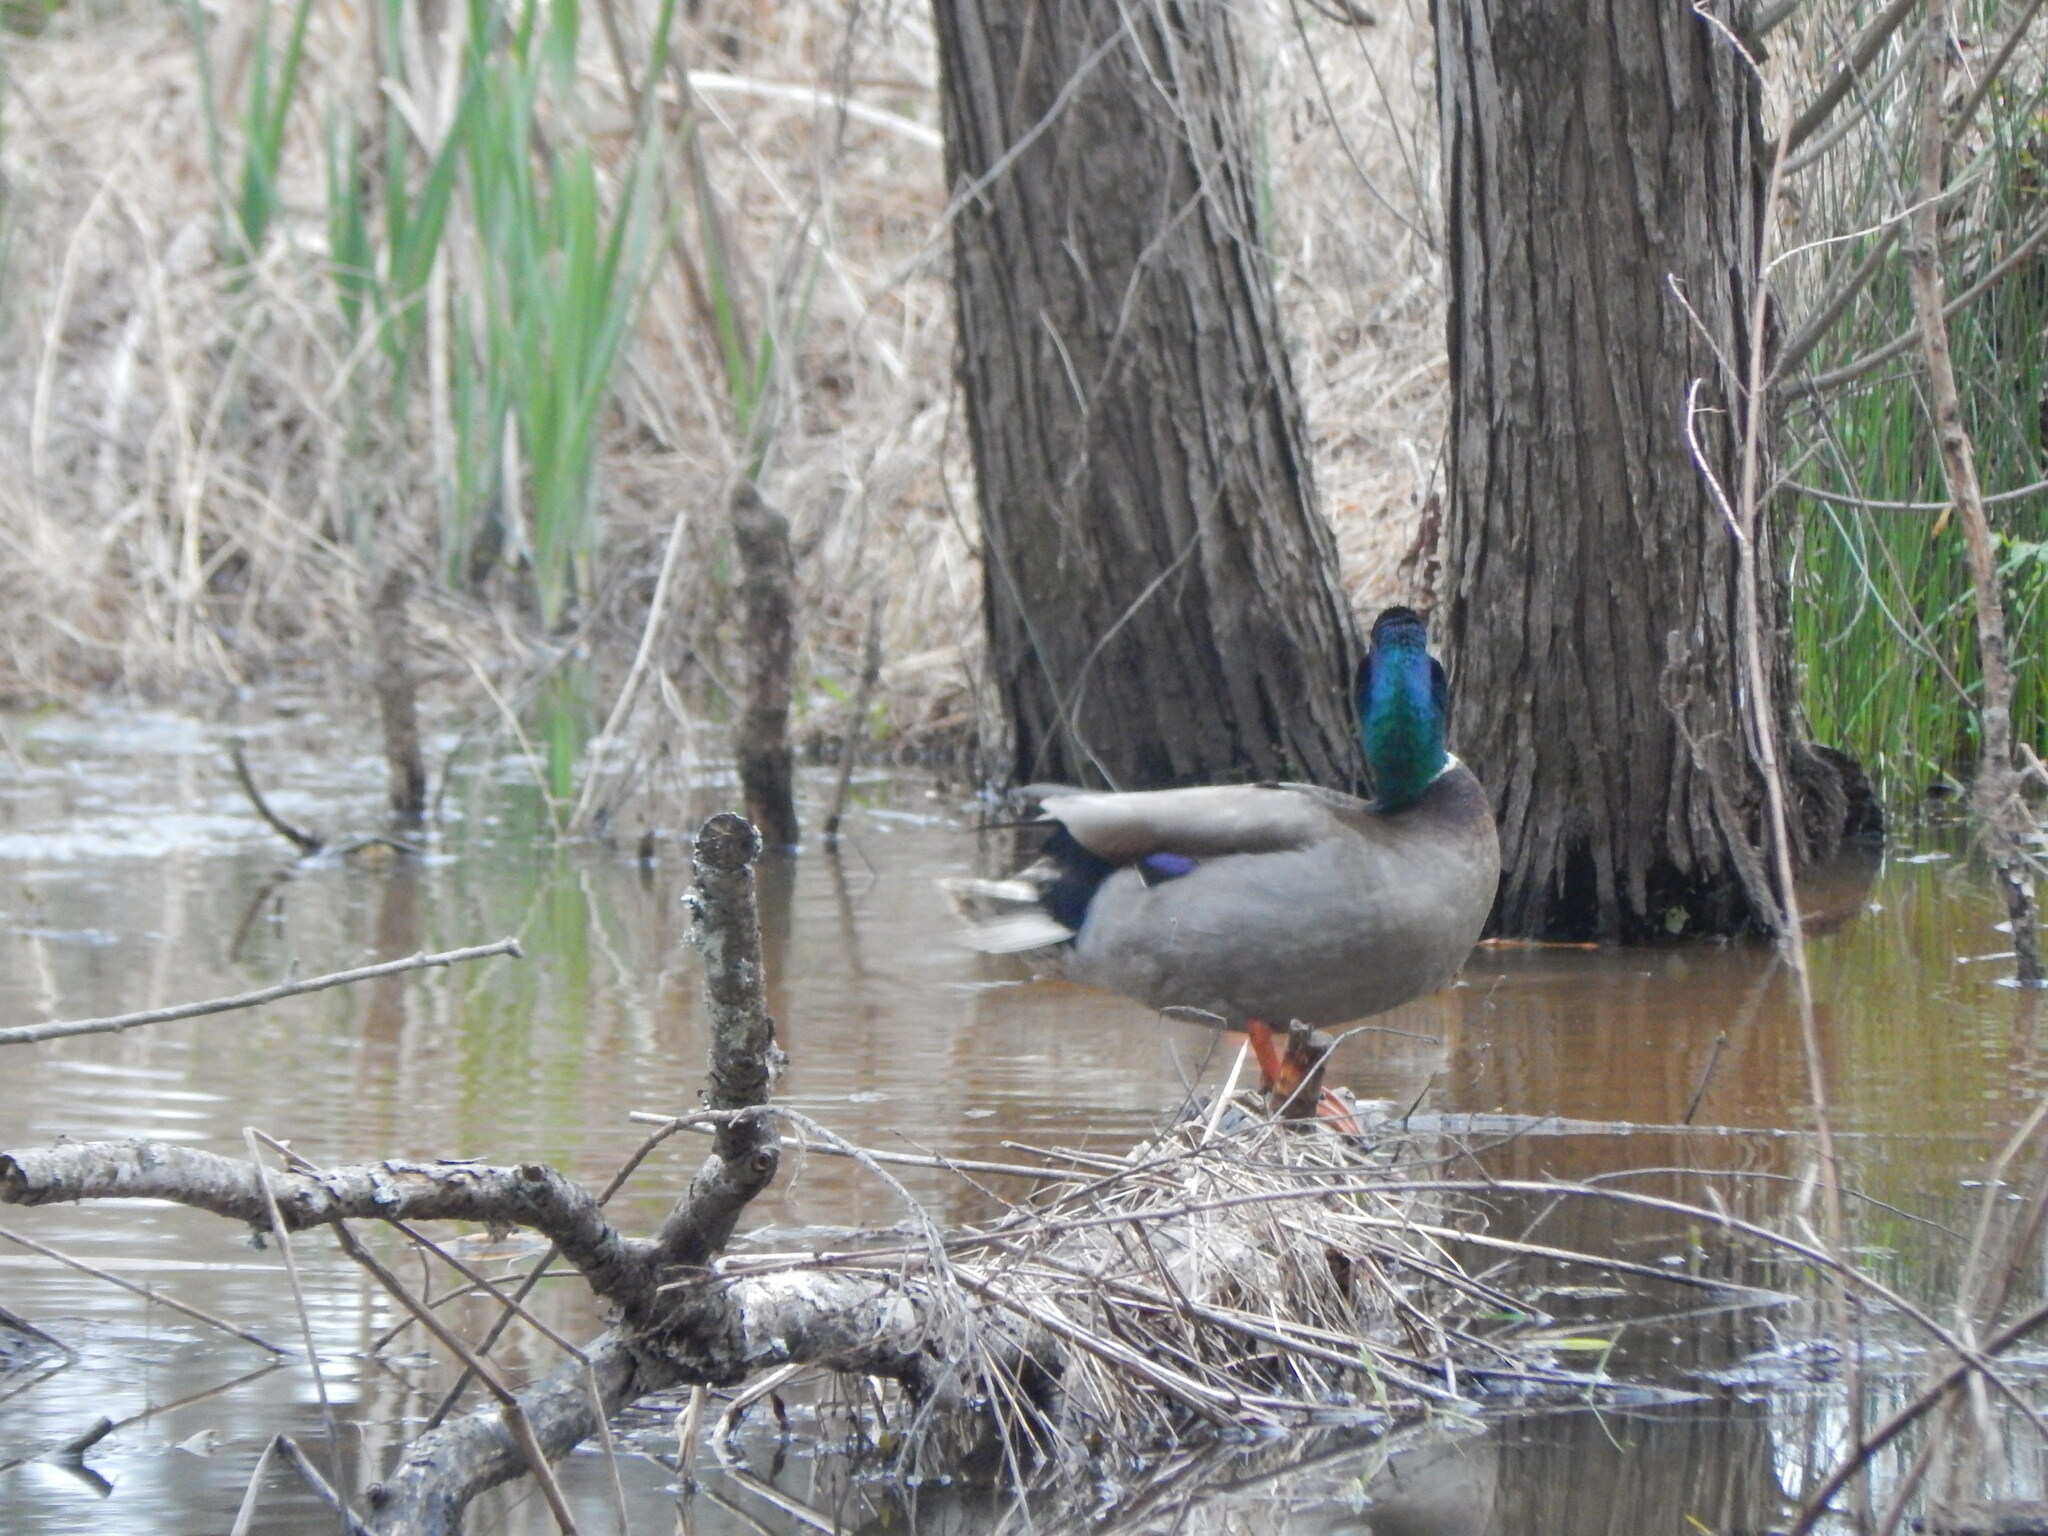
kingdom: Animalia
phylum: Chordata
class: Aves
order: Anseriformes
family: Anatidae
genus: Anas
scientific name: Anas platyrhynchos
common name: Mallard
